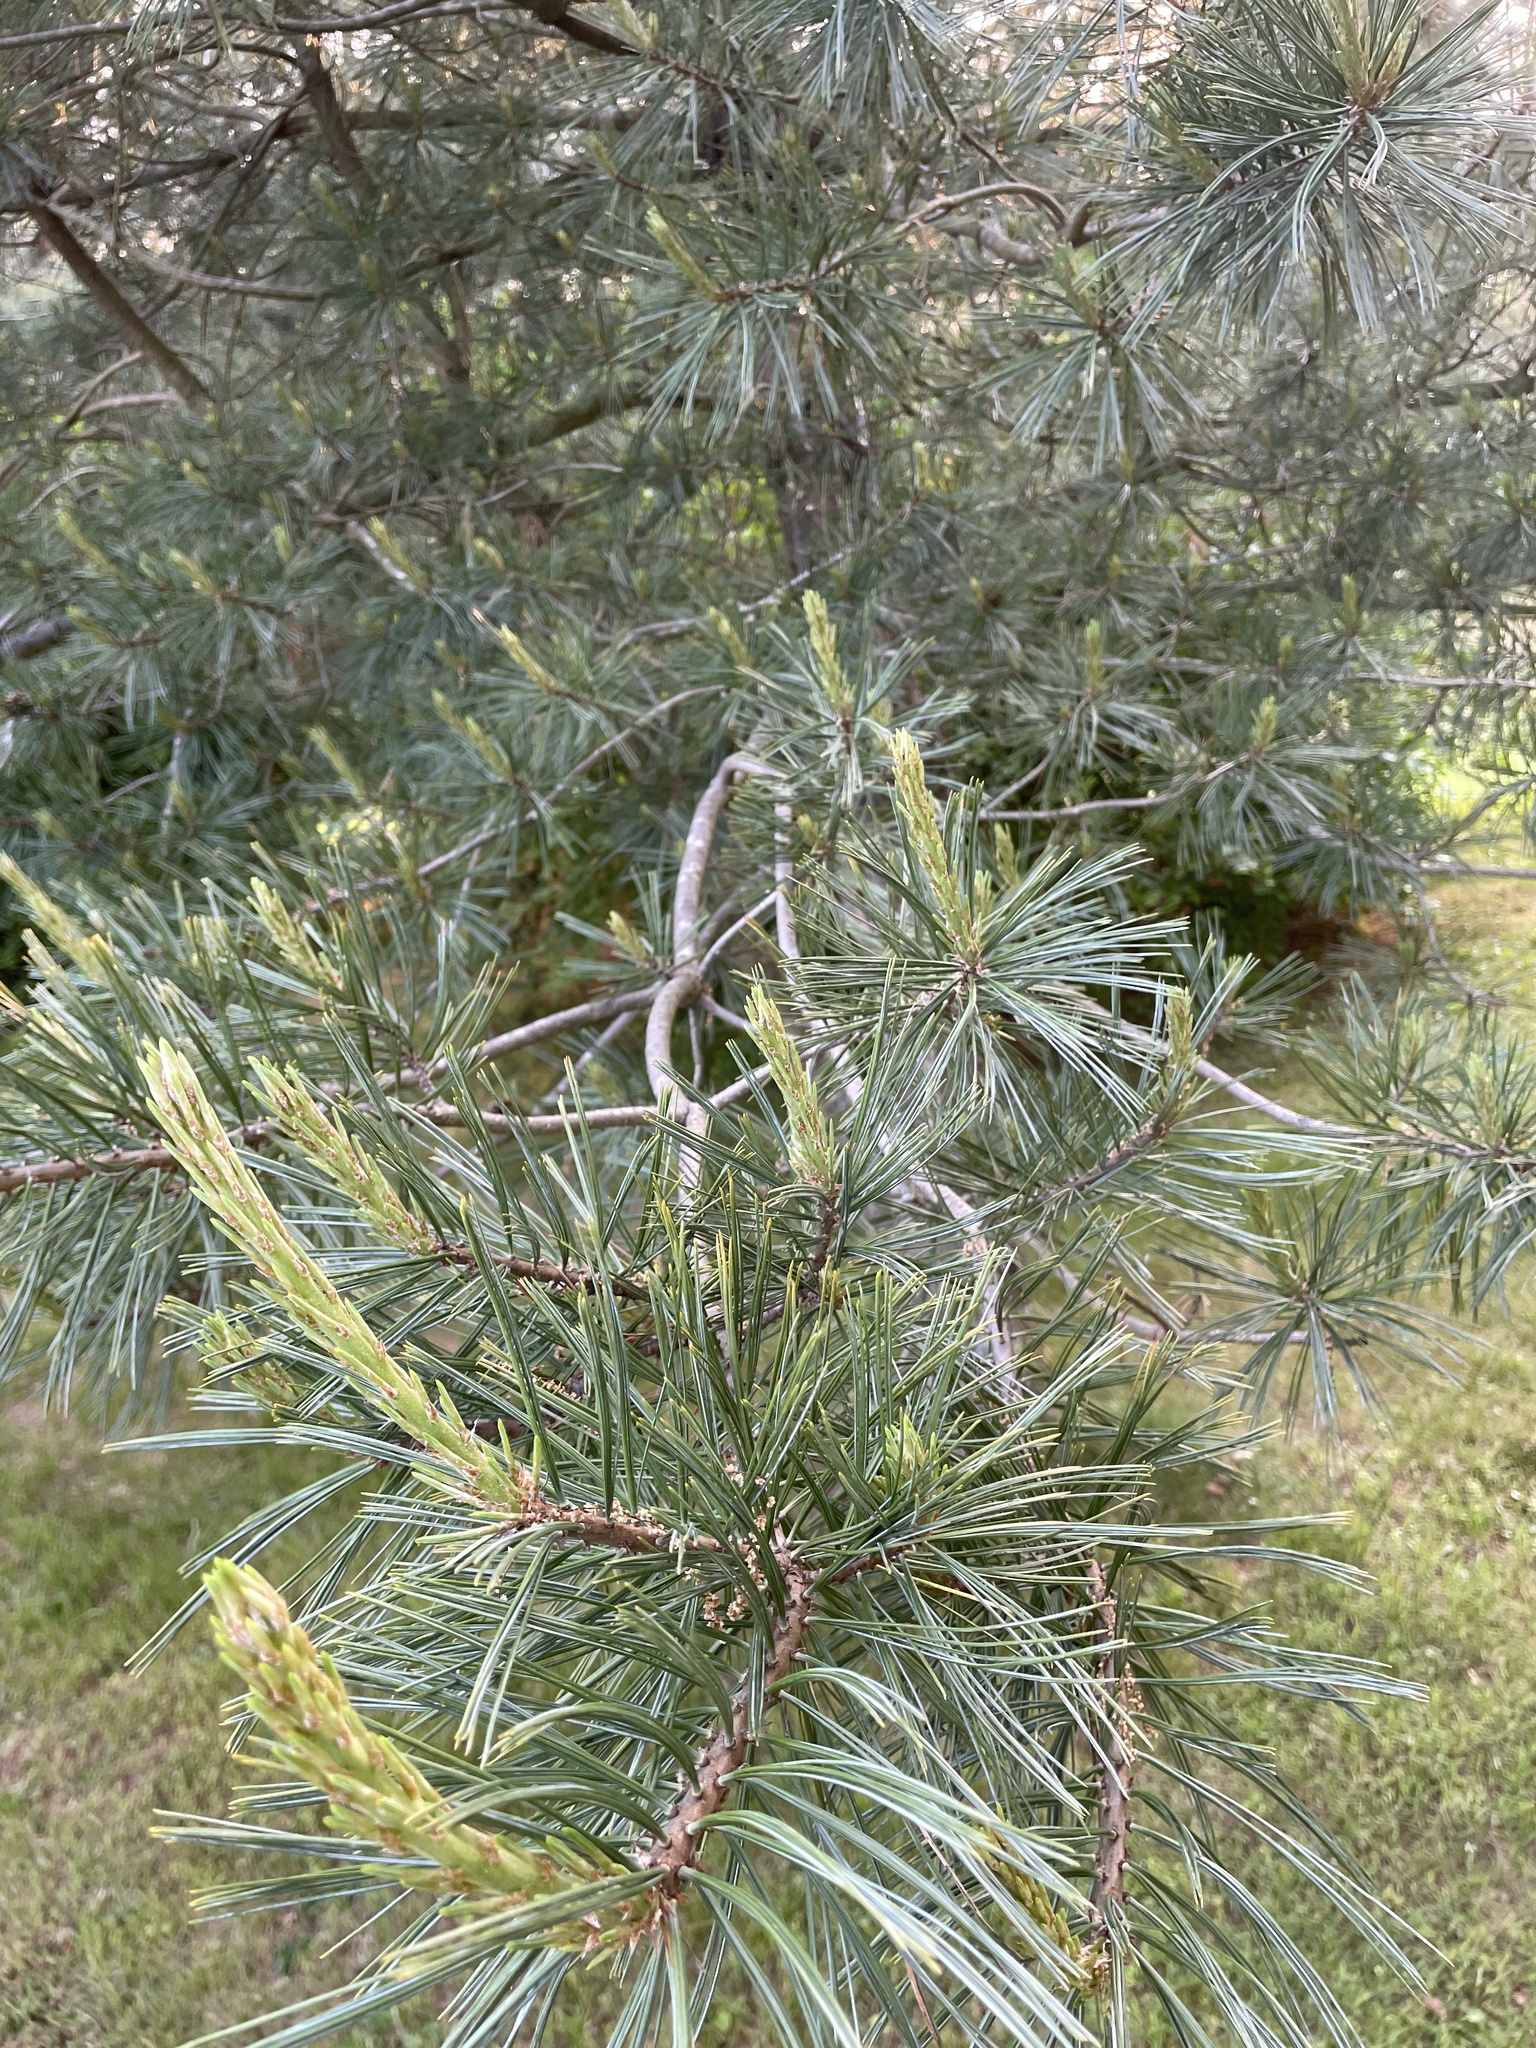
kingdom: Plantae
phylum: Tracheophyta
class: Pinopsida
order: Pinales
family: Pinaceae
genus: Pinus
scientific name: Pinus strobus
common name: Weymouth pine
